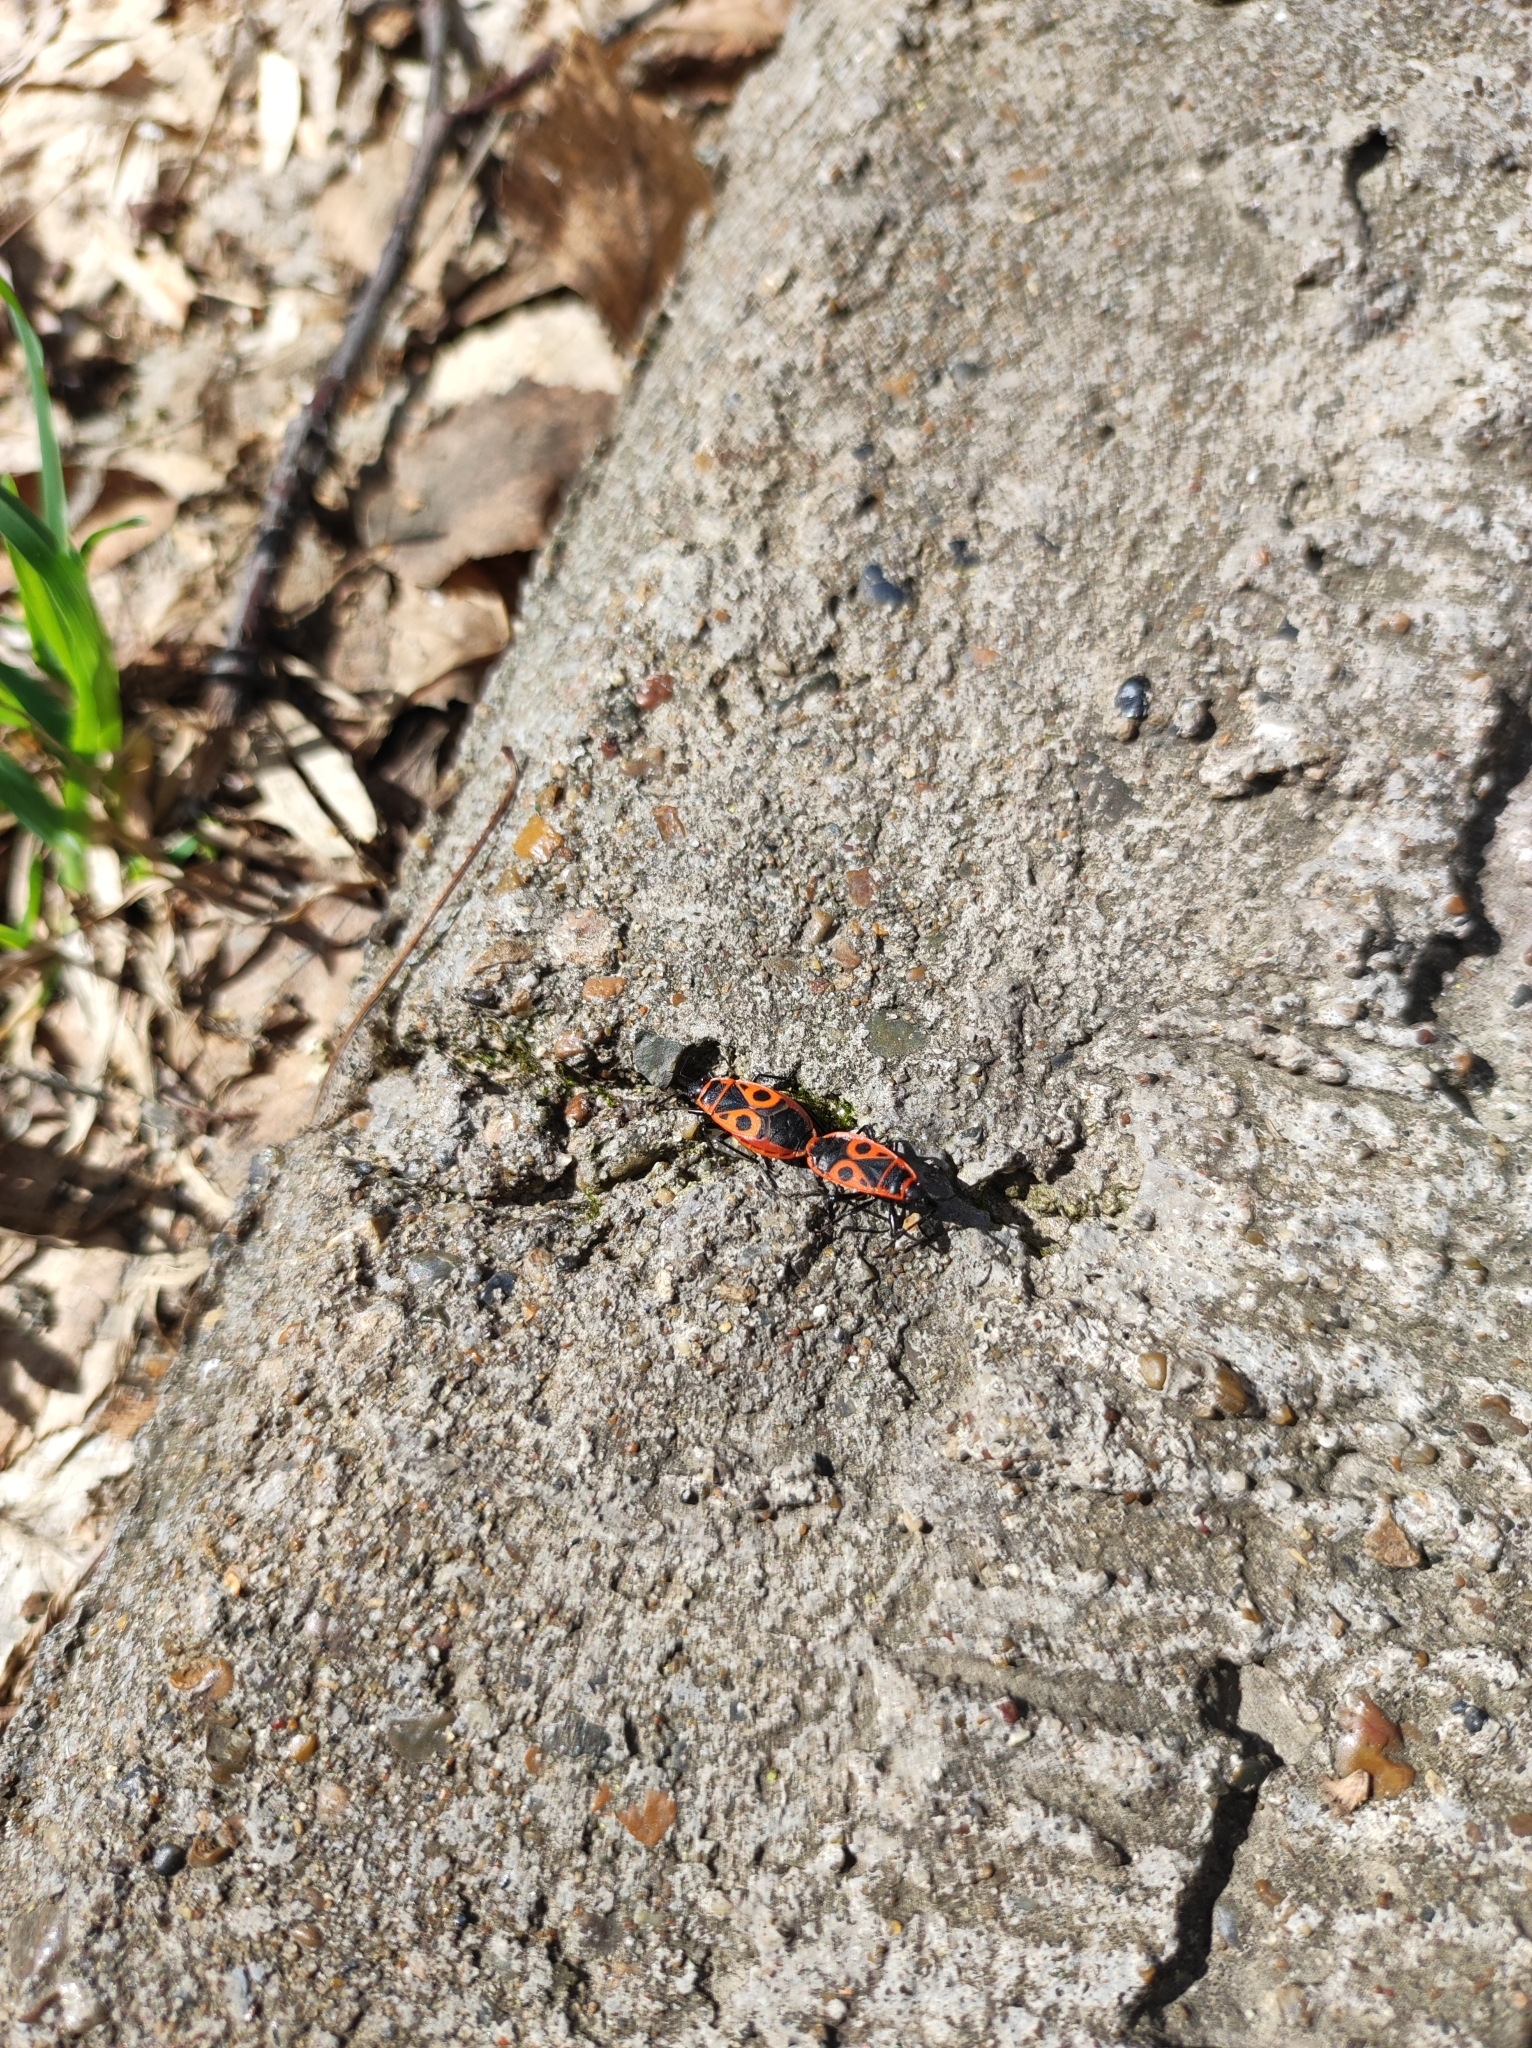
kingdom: Animalia
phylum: Arthropoda
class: Insecta
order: Hemiptera
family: Pyrrhocoridae
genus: Pyrrhocoris
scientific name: Pyrrhocoris apterus
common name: Firebug
